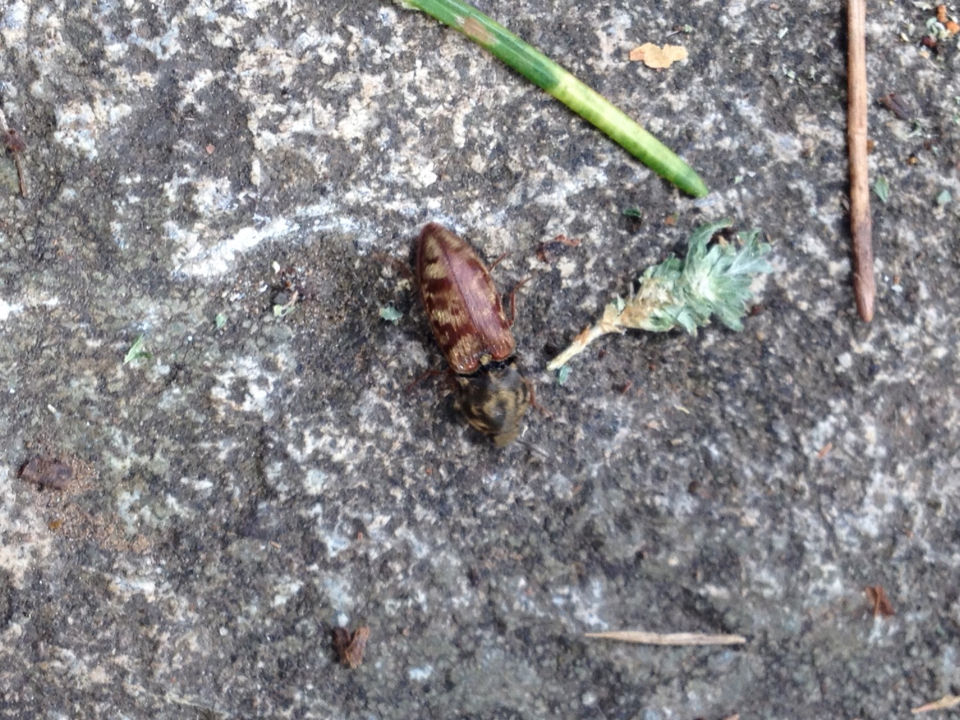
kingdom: Animalia
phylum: Arthropoda
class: Insecta
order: Coleoptera
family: Elateridae
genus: Prosternon
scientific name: Prosternon bombycinum
